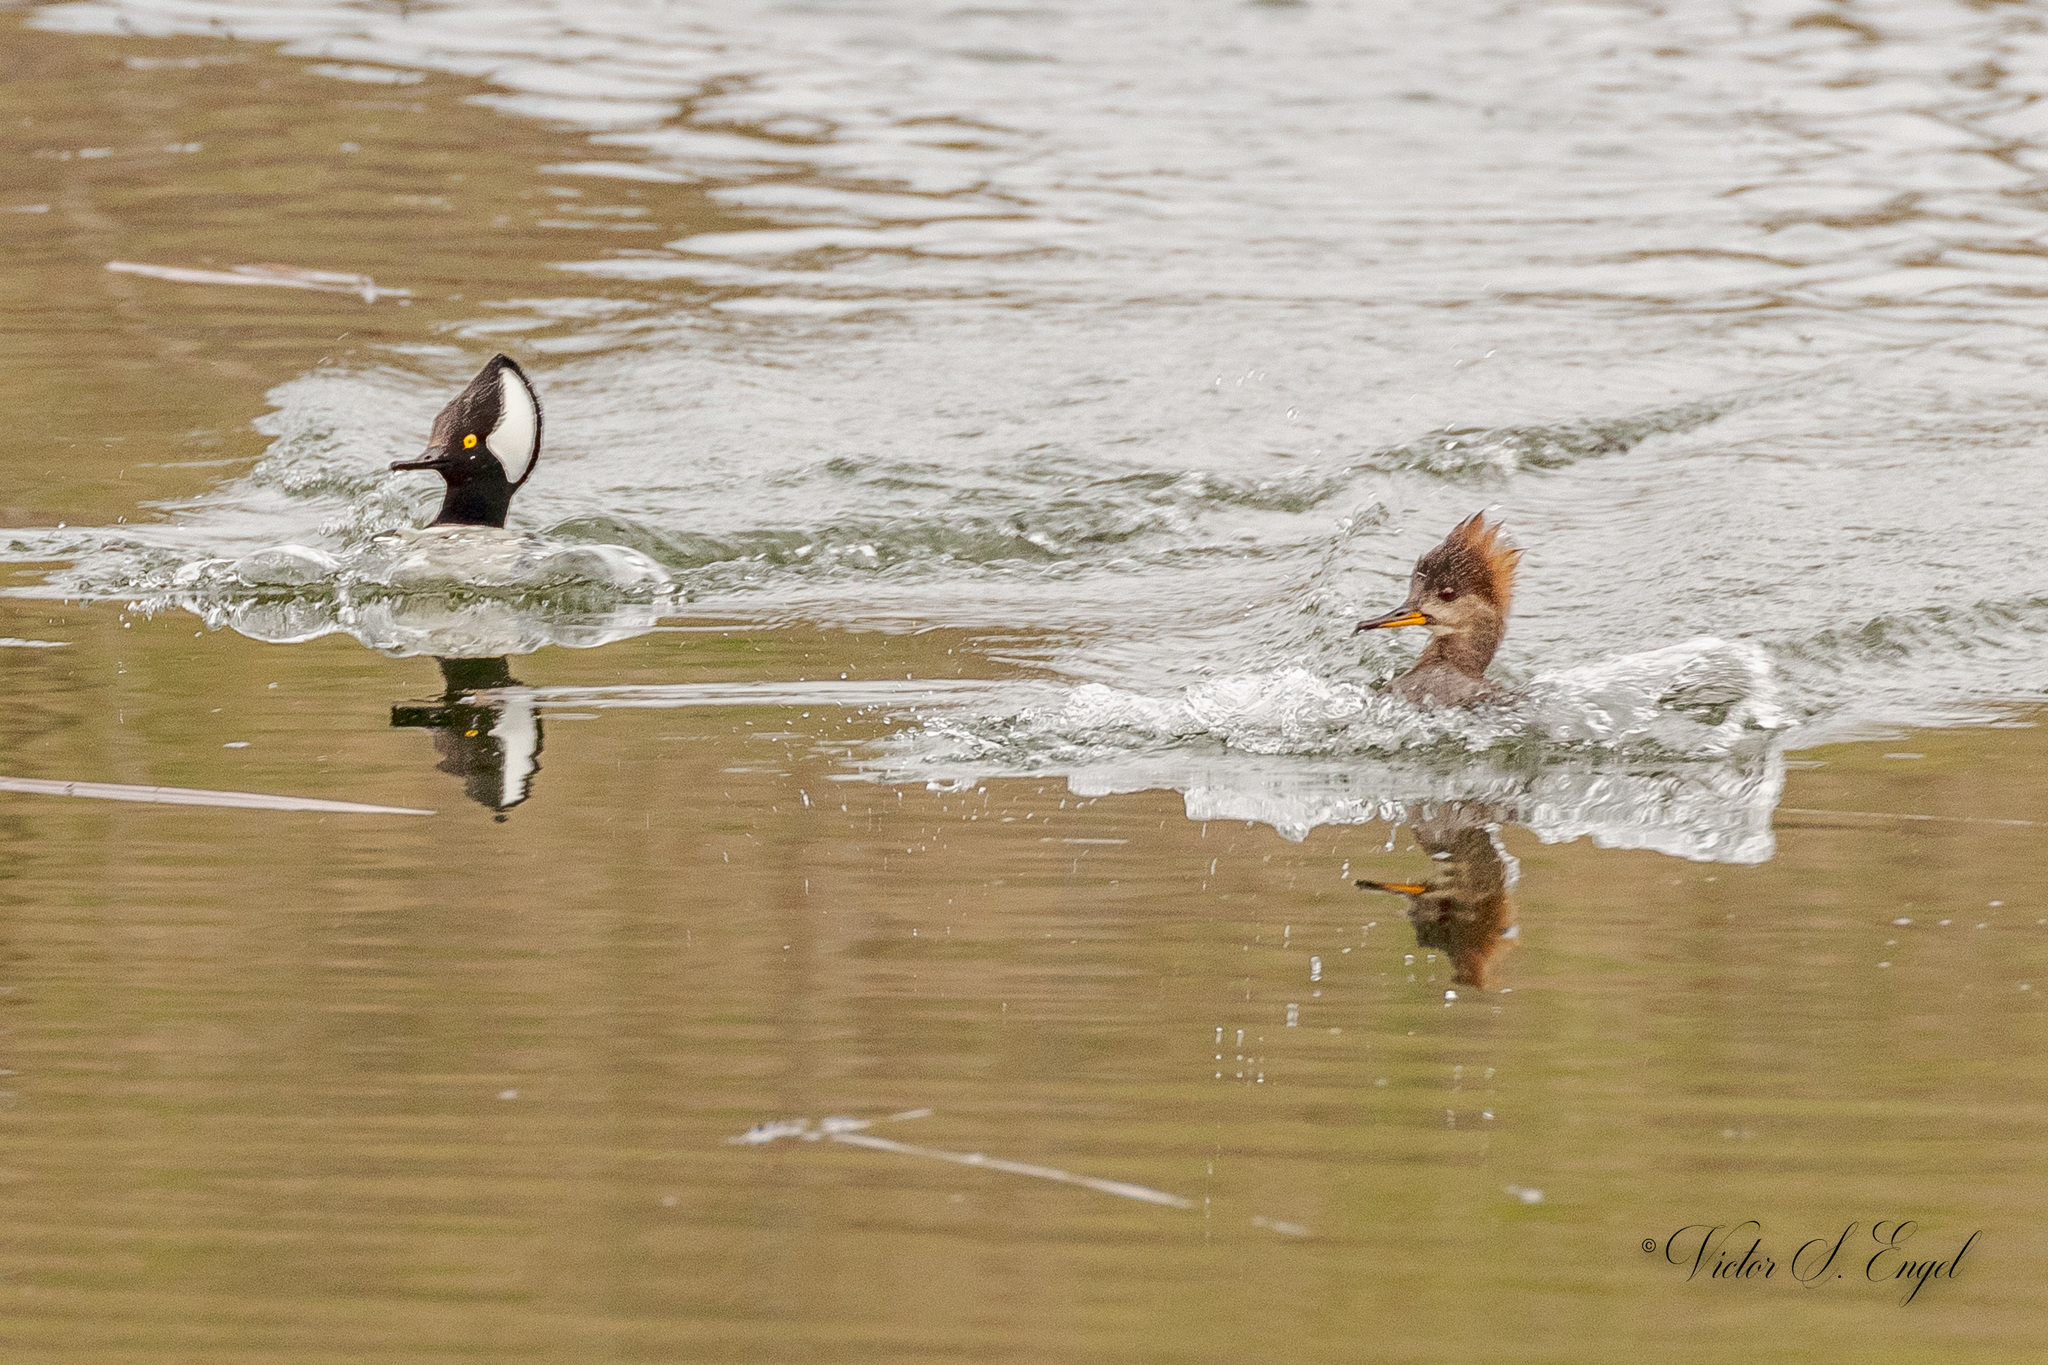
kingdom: Animalia
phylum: Chordata
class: Aves
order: Anseriformes
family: Anatidae
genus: Lophodytes
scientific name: Lophodytes cucullatus
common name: Hooded merganser
